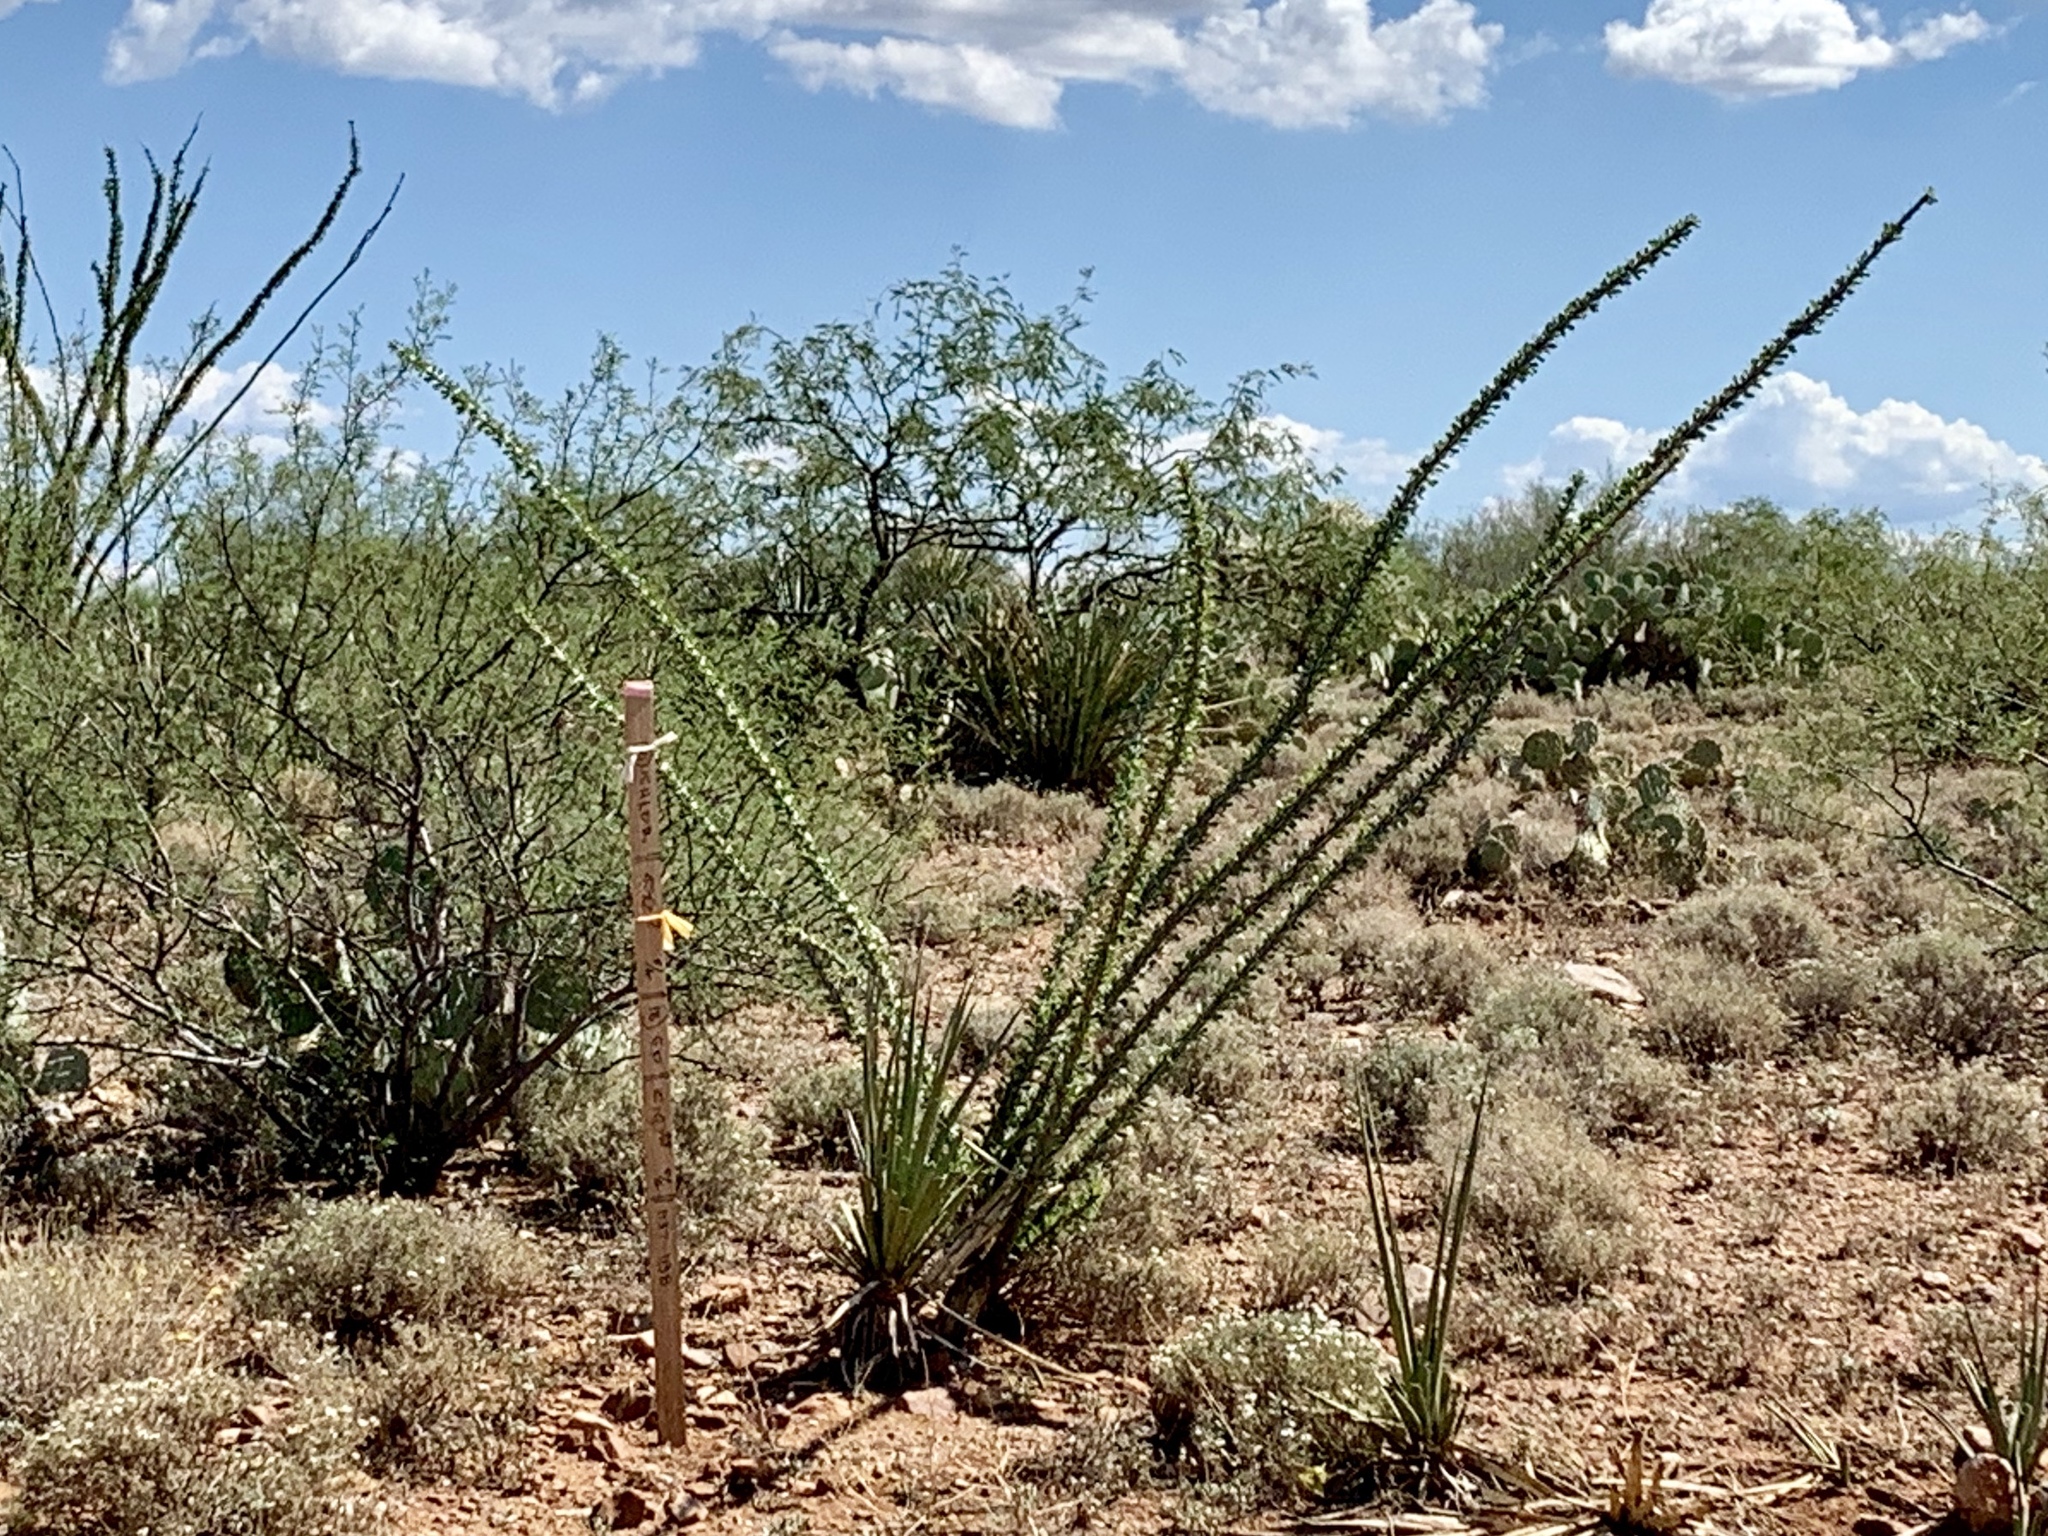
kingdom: Plantae
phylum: Tracheophyta
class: Magnoliopsida
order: Ericales
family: Fouquieriaceae
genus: Fouquieria
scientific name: Fouquieria splendens
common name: Vine-cactus
